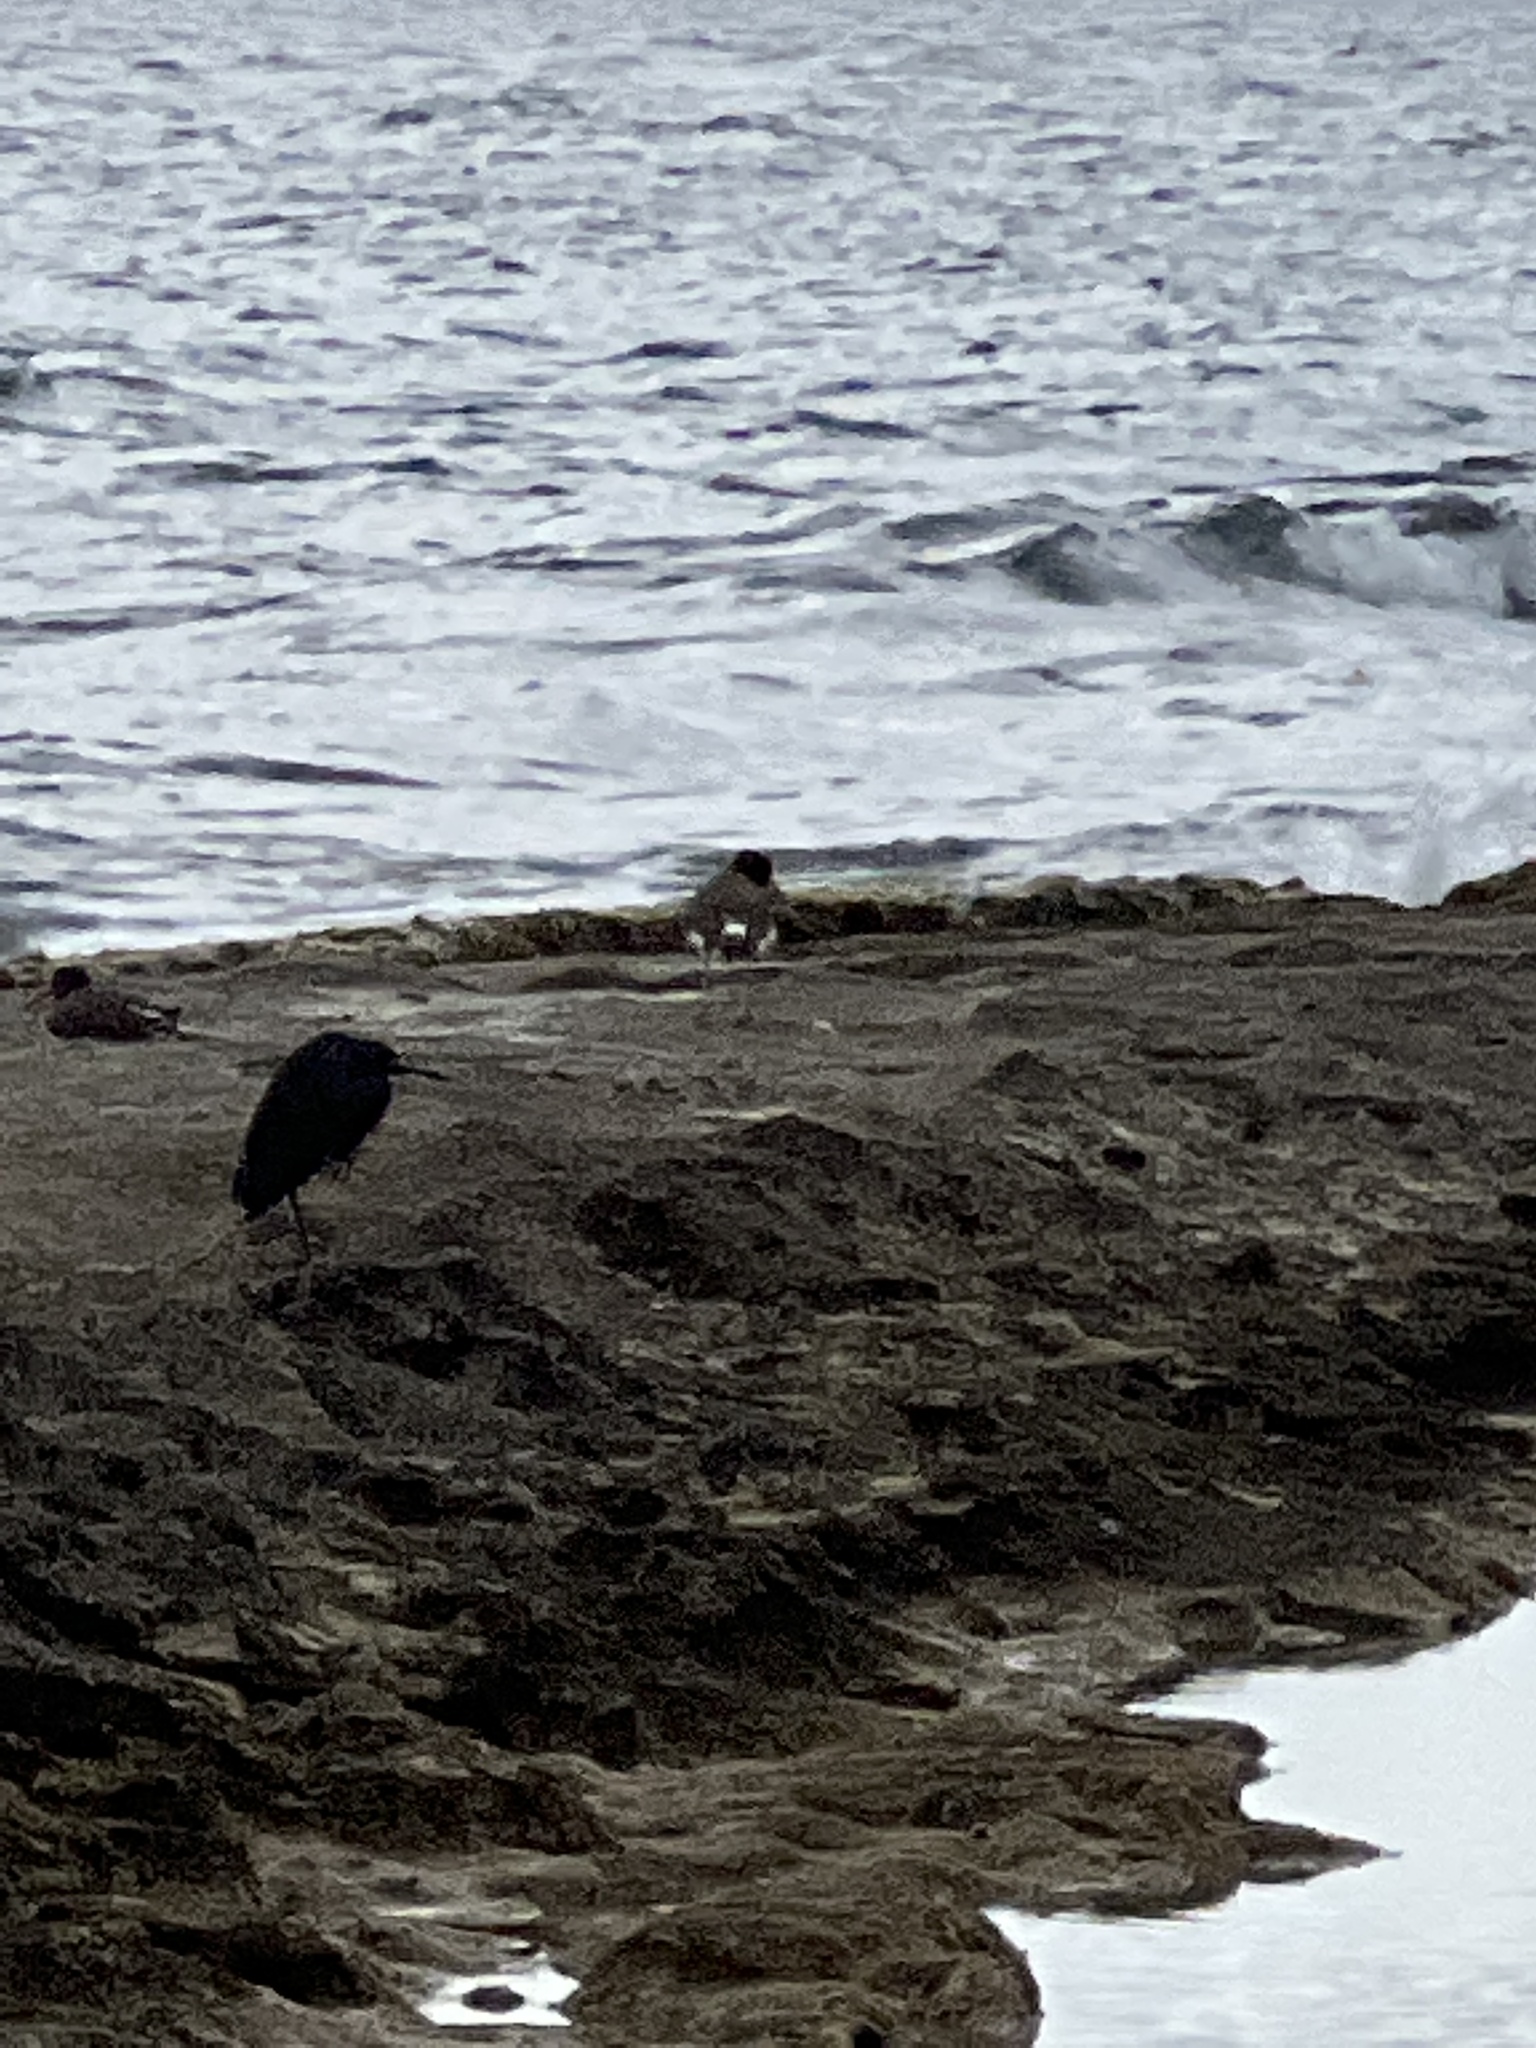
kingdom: Animalia
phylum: Chordata
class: Aves
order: Charadriiformes
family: Haematopodidae
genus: Haematopus
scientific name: Haematopus palliatus
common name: American oystercatcher
